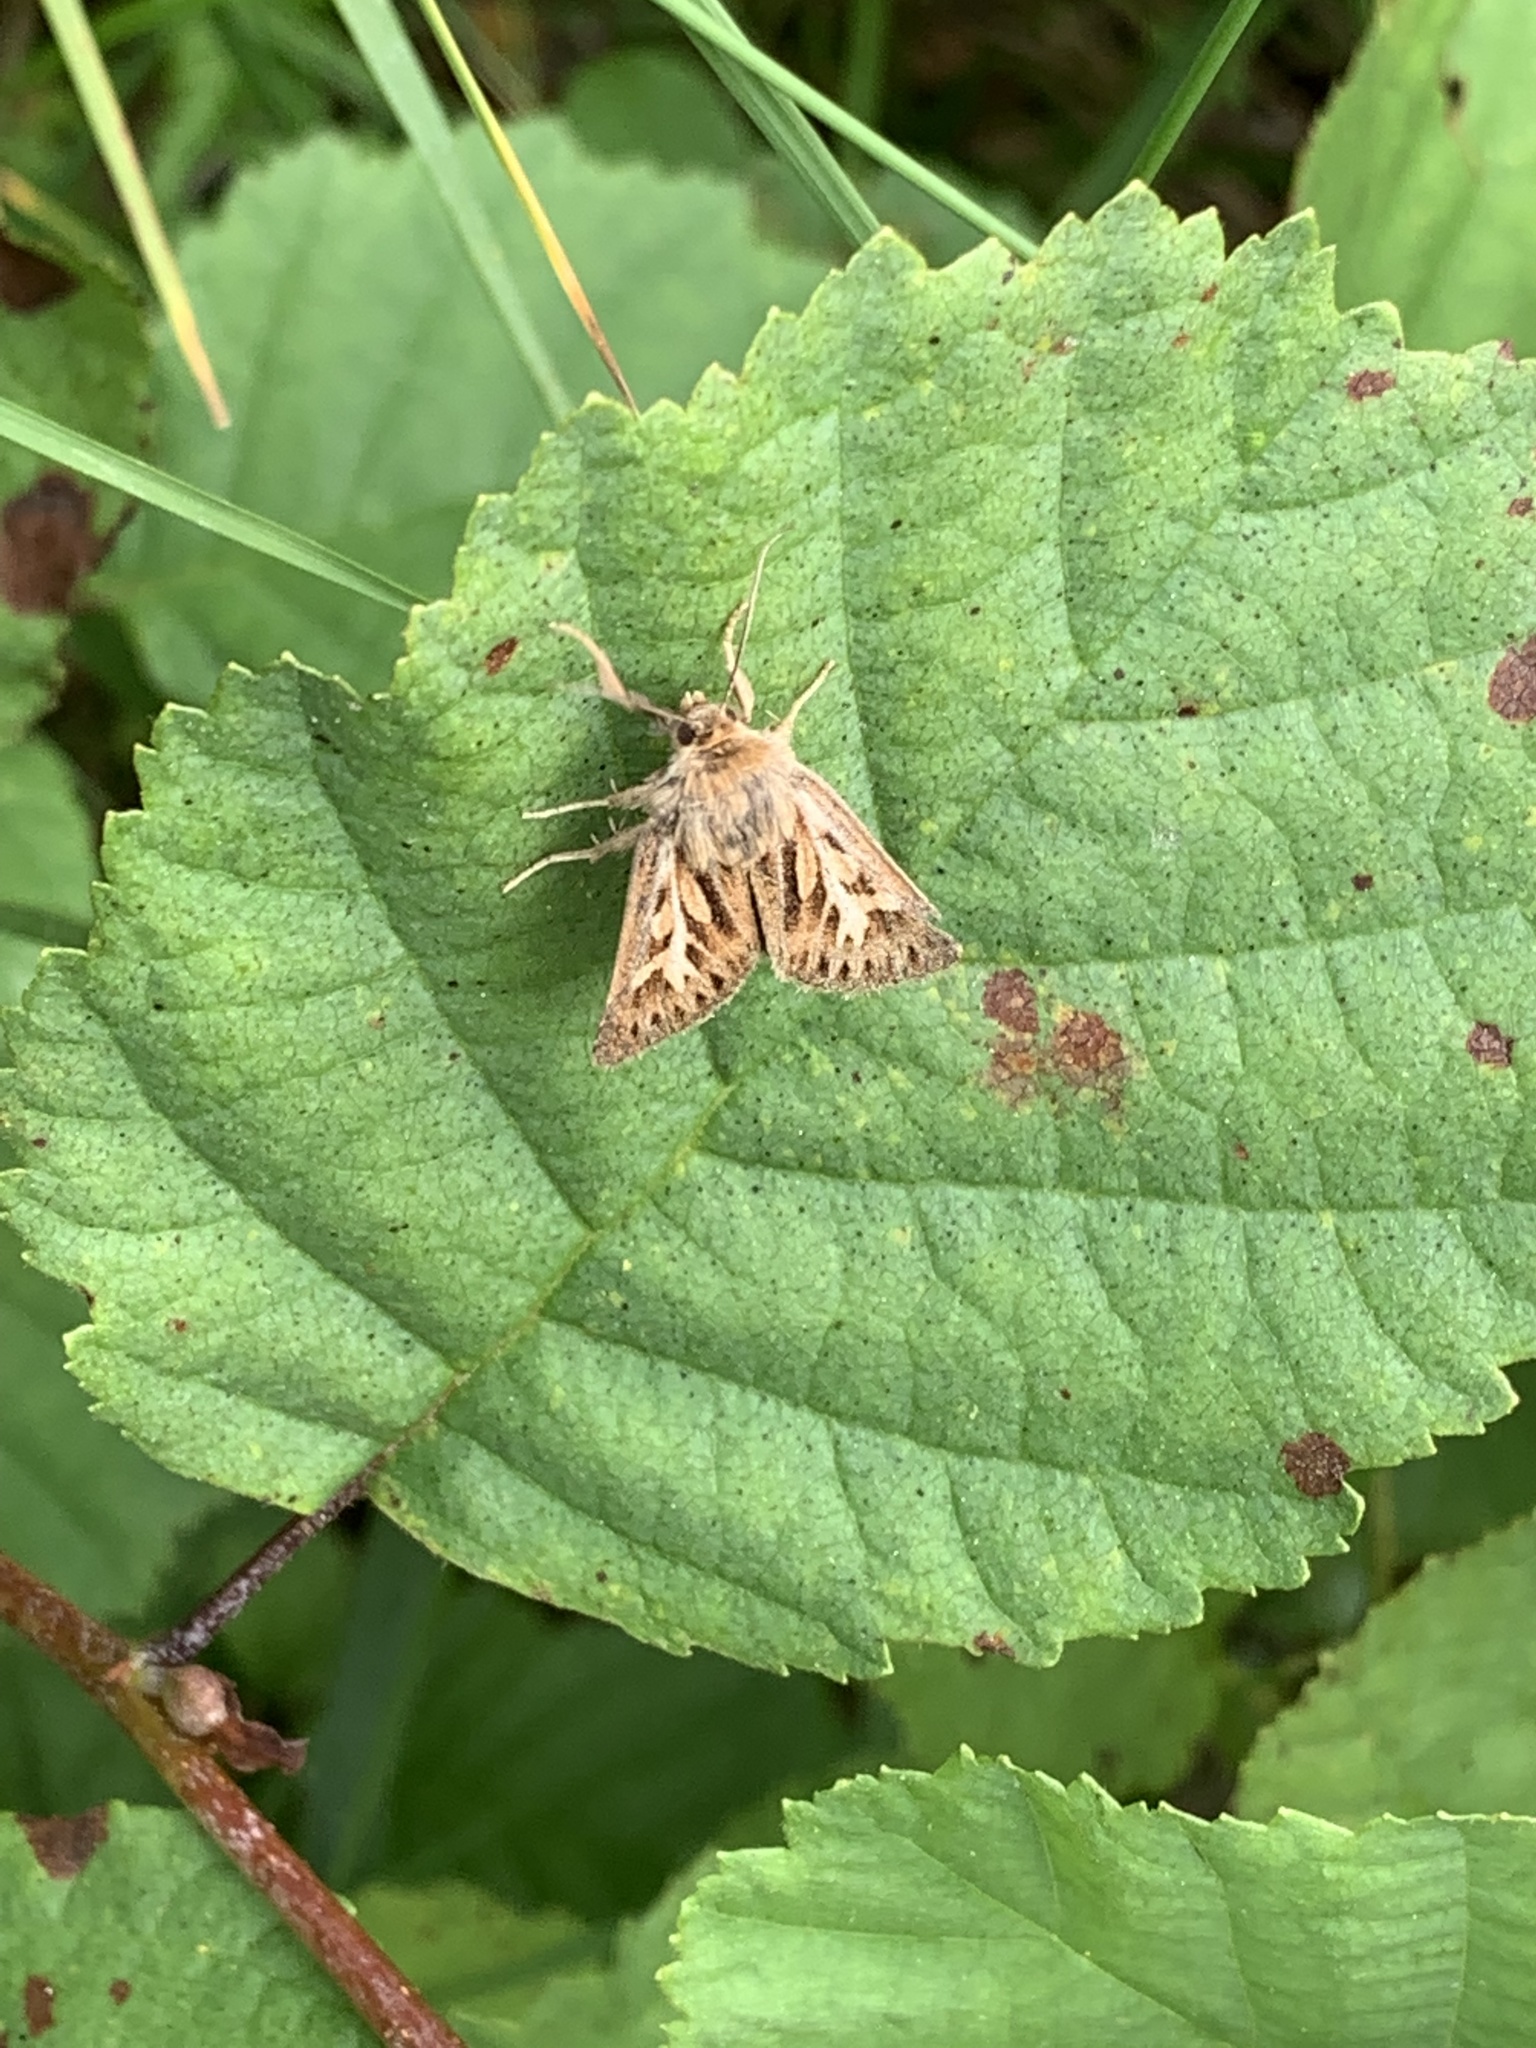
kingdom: Animalia
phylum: Arthropoda
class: Insecta
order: Lepidoptera
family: Noctuidae
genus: Cerapteryx
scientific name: Cerapteryx graminis
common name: Antler moth
